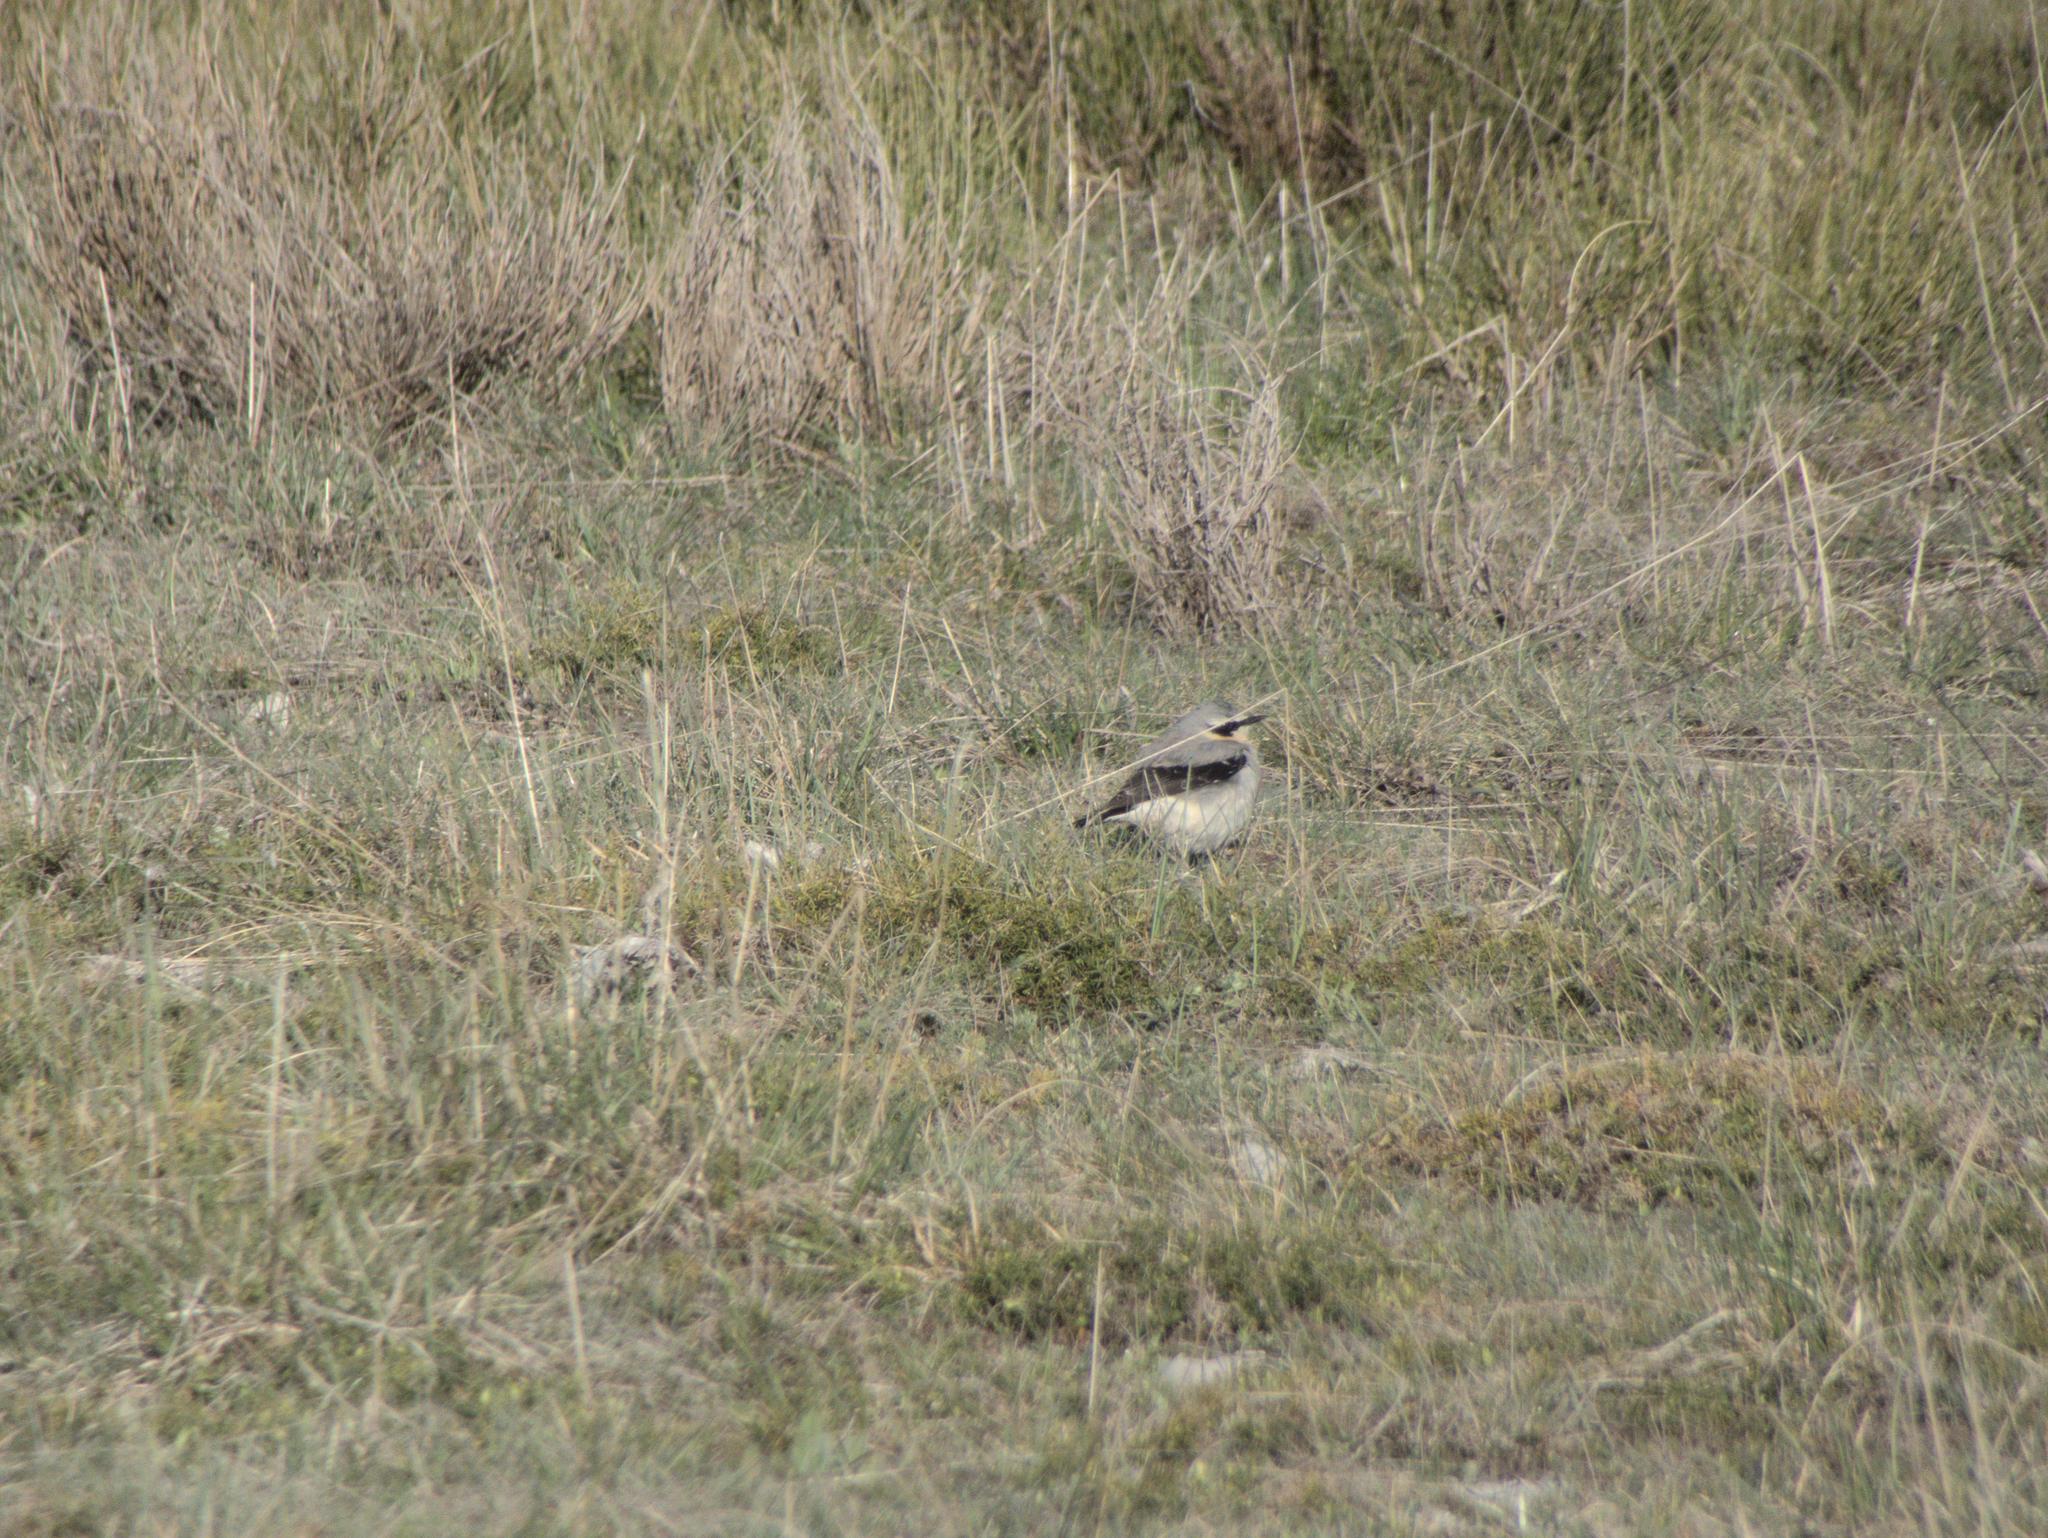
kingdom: Animalia
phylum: Chordata
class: Aves
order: Passeriformes
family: Muscicapidae
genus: Oenanthe
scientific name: Oenanthe oenanthe
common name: Northern wheatear
